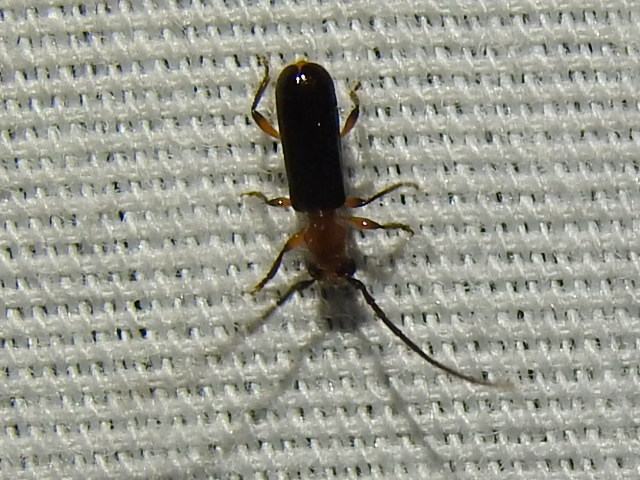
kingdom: Animalia
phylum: Arthropoda
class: Insecta
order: Coleoptera
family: Cerambycidae
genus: Obrium
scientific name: Obrium mozinnae
